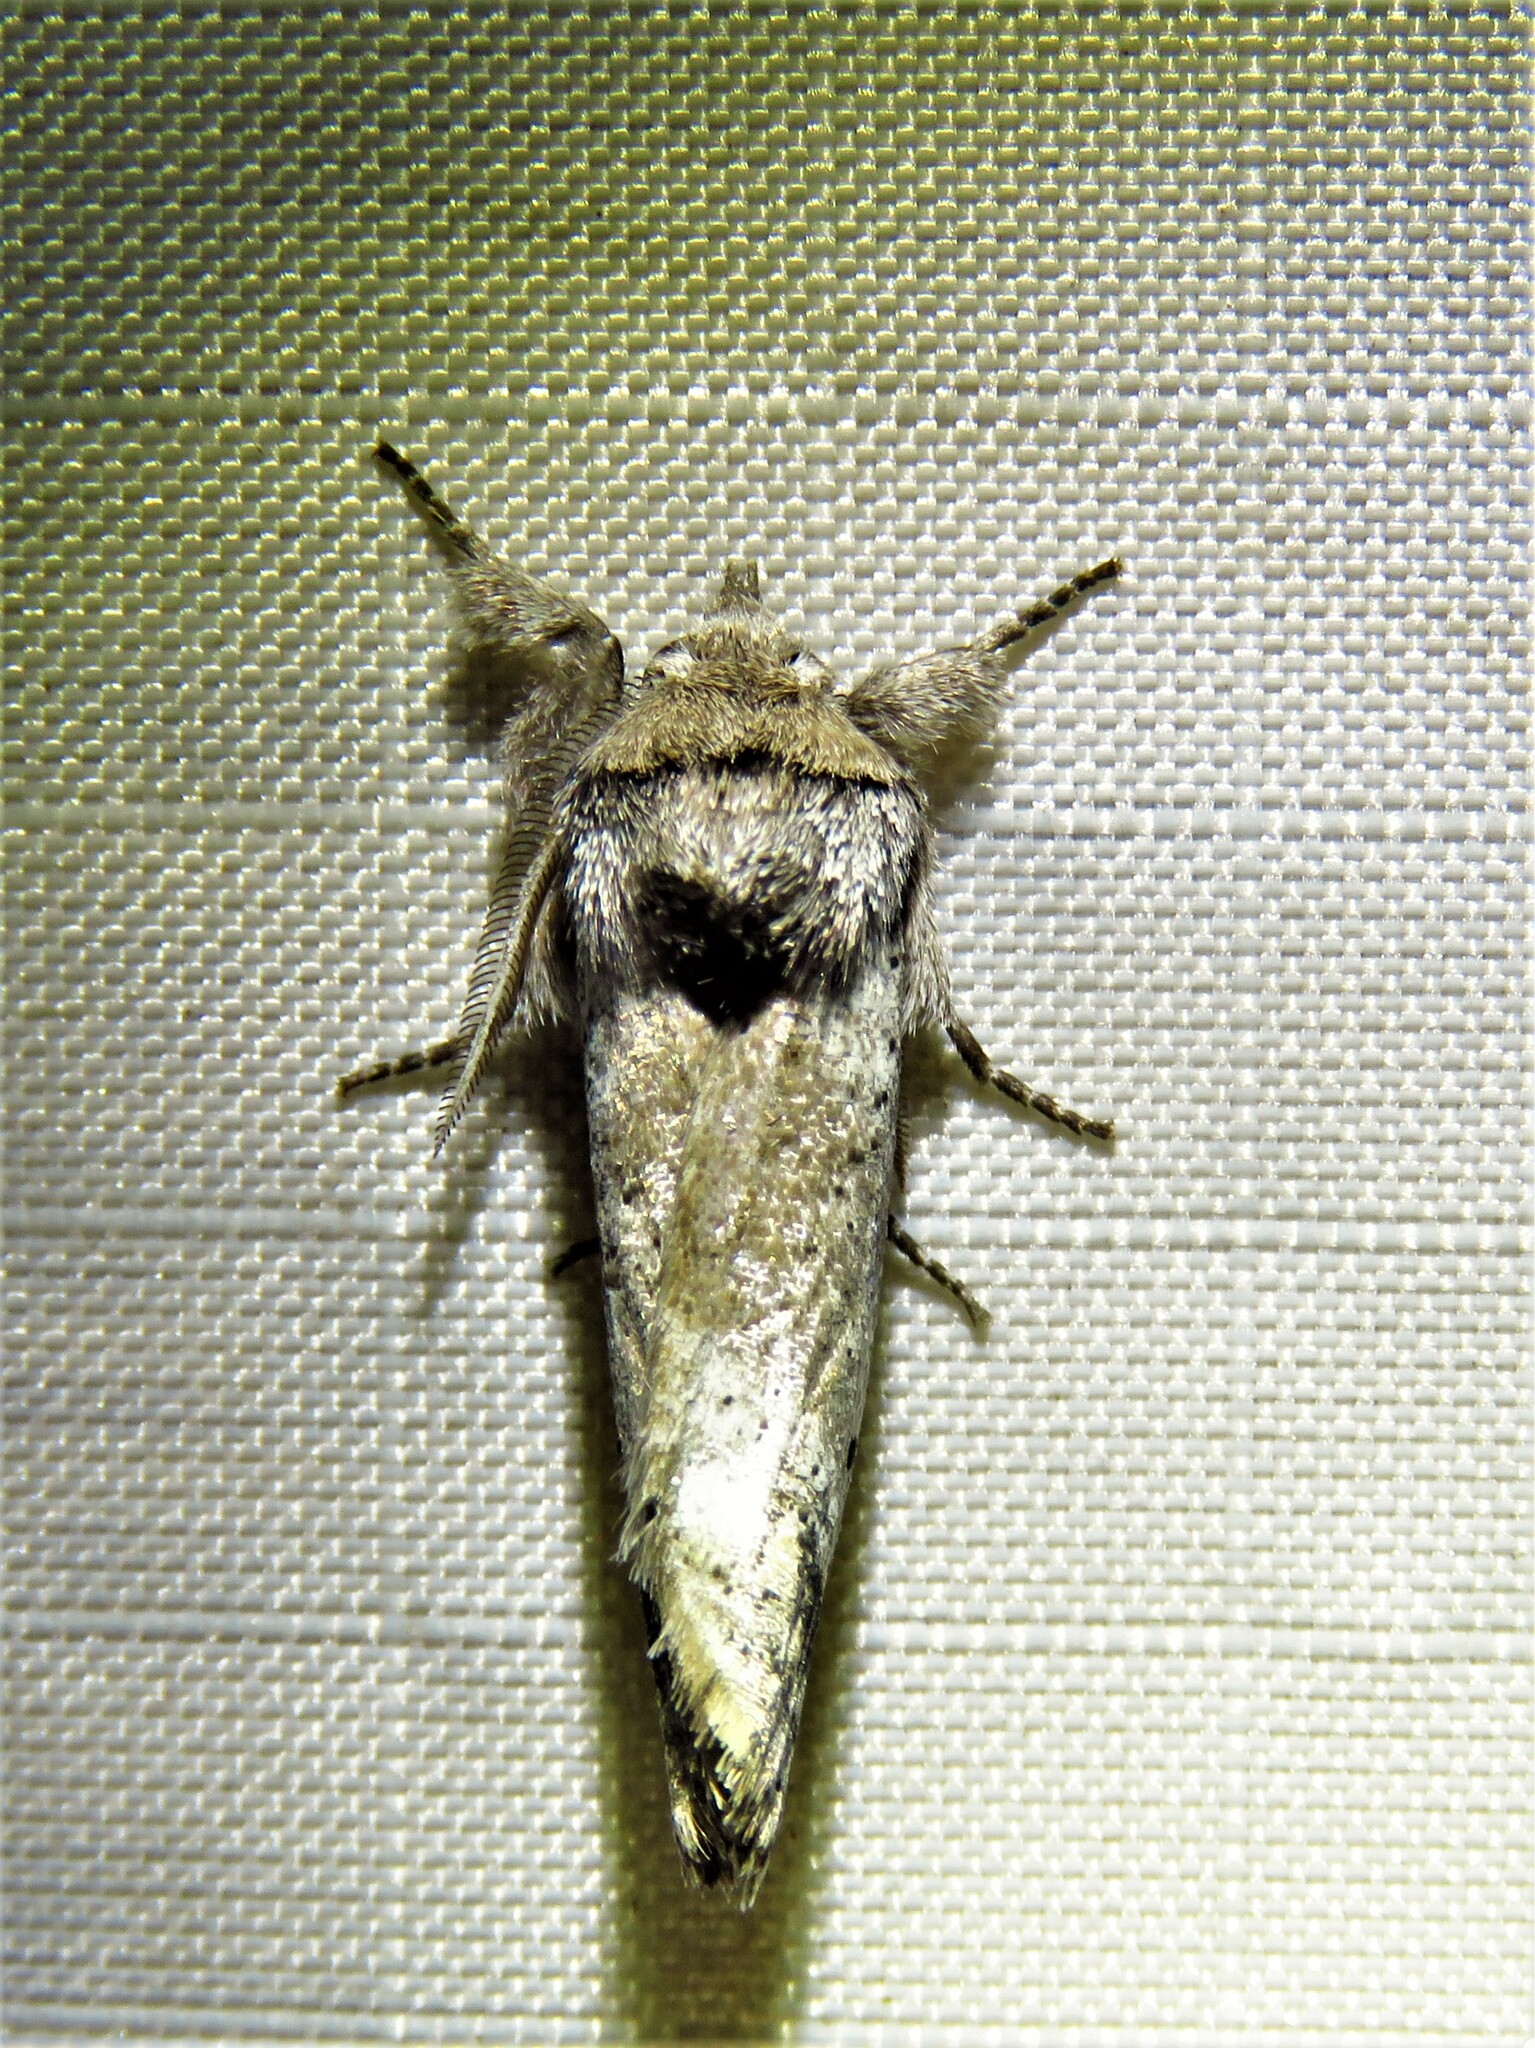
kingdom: Animalia
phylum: Arthropoda
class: Insecta
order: Lepidoptera
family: Erebidae
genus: Aon
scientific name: Aon noctuiformis
